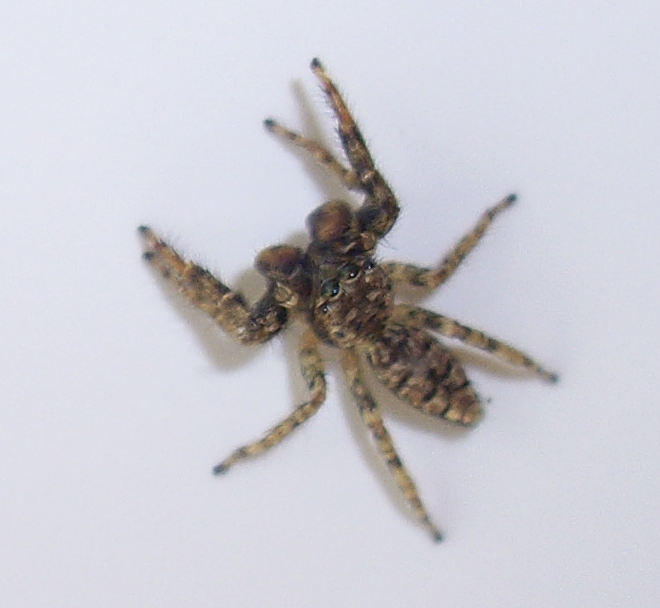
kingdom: Animalia
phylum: Arthropoda
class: Arachnida
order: Araneae
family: Salticidae
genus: Marpissa
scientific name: Marpissa muscosa
